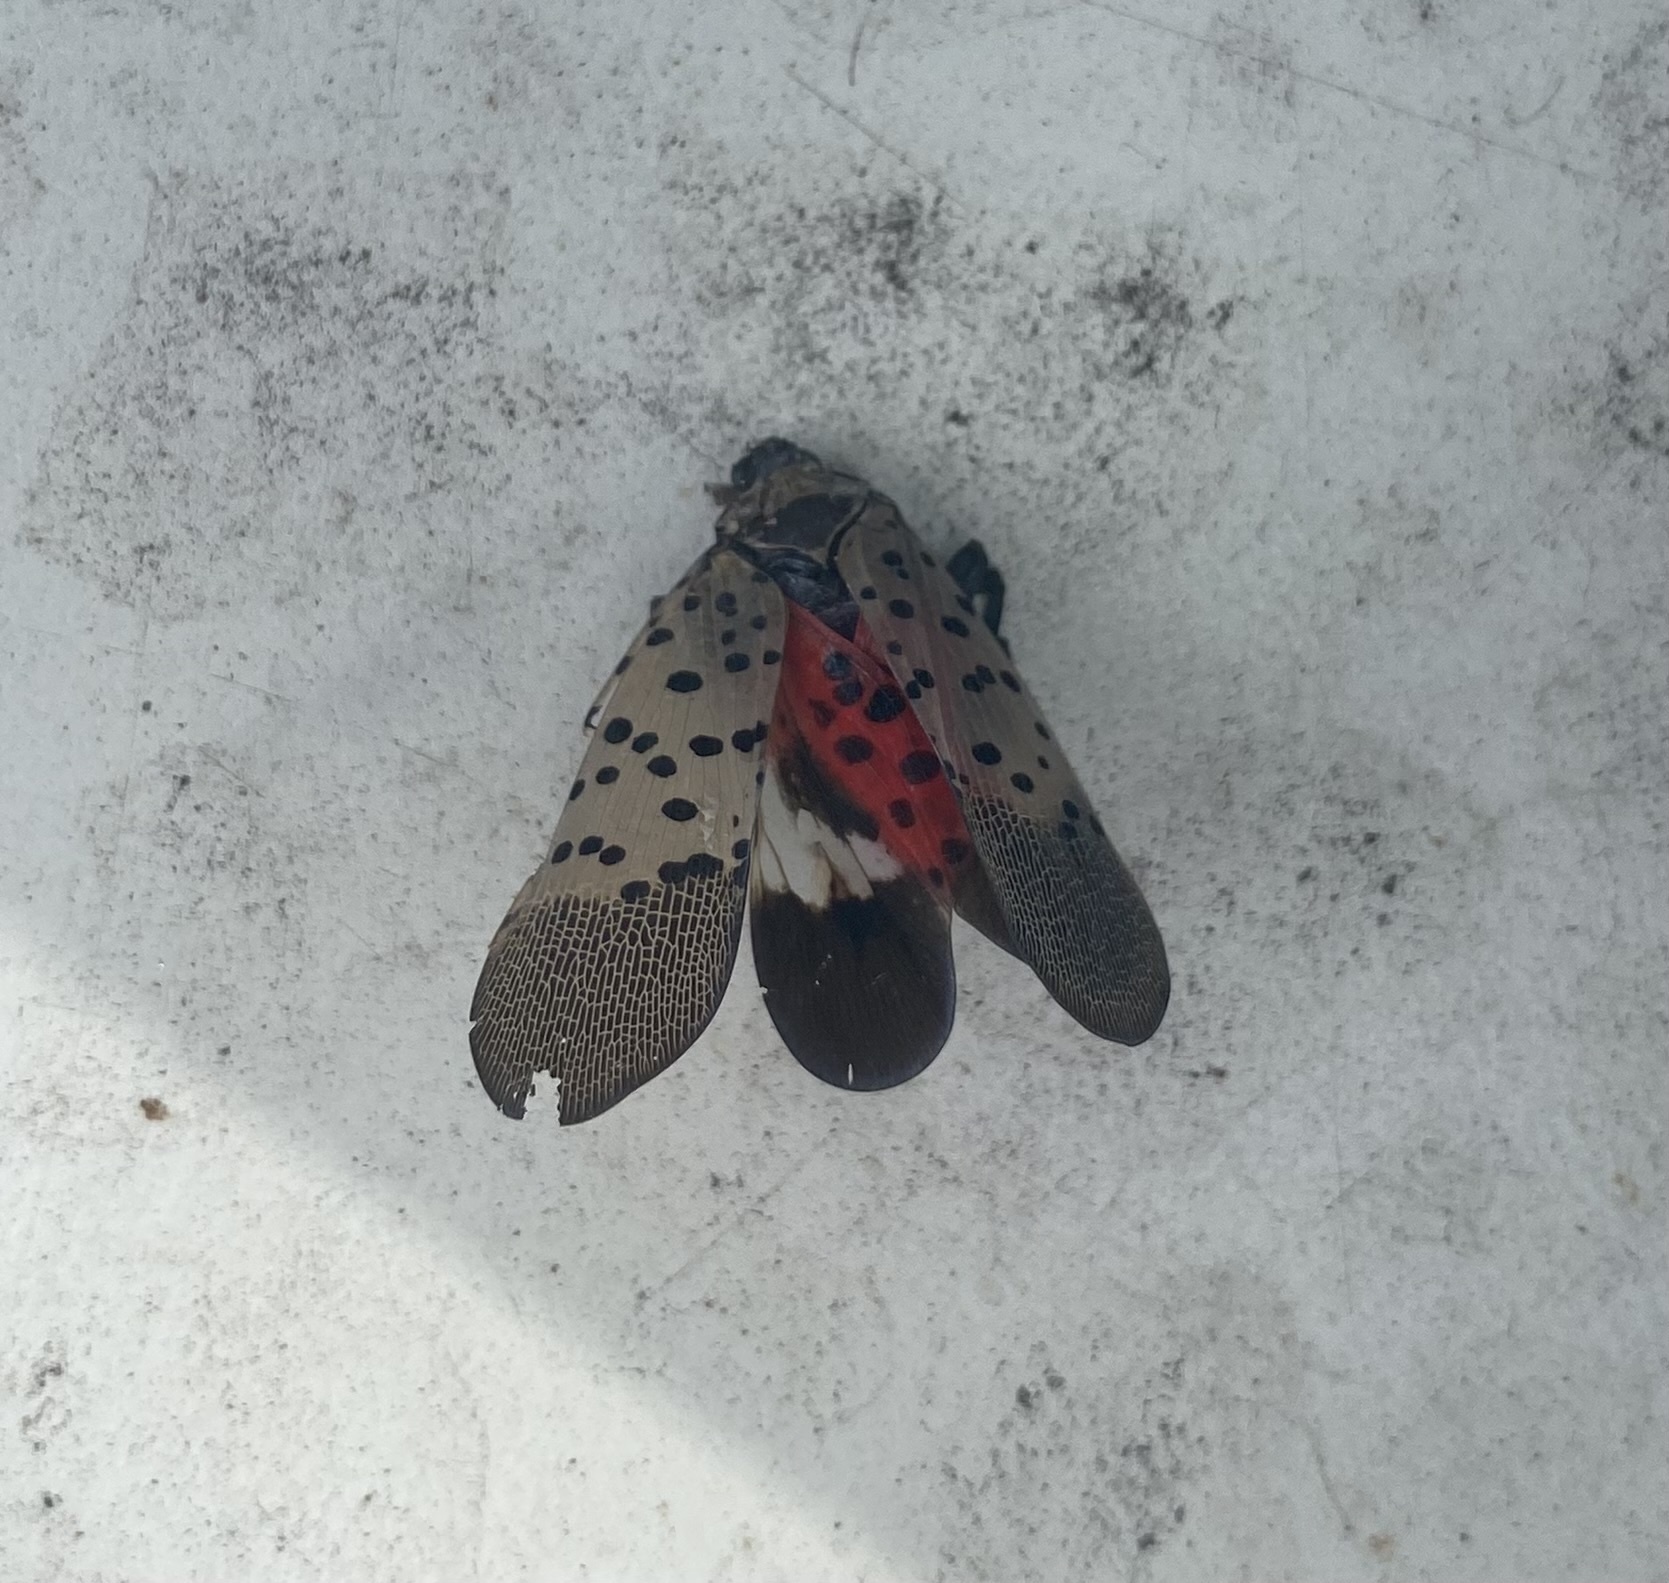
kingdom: Animalia
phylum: Arthropoda
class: Insecta
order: Hemiptera
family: Fulgoridae
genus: Lycorma
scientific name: Lycorma delicatula
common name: Spotted lanternfly
